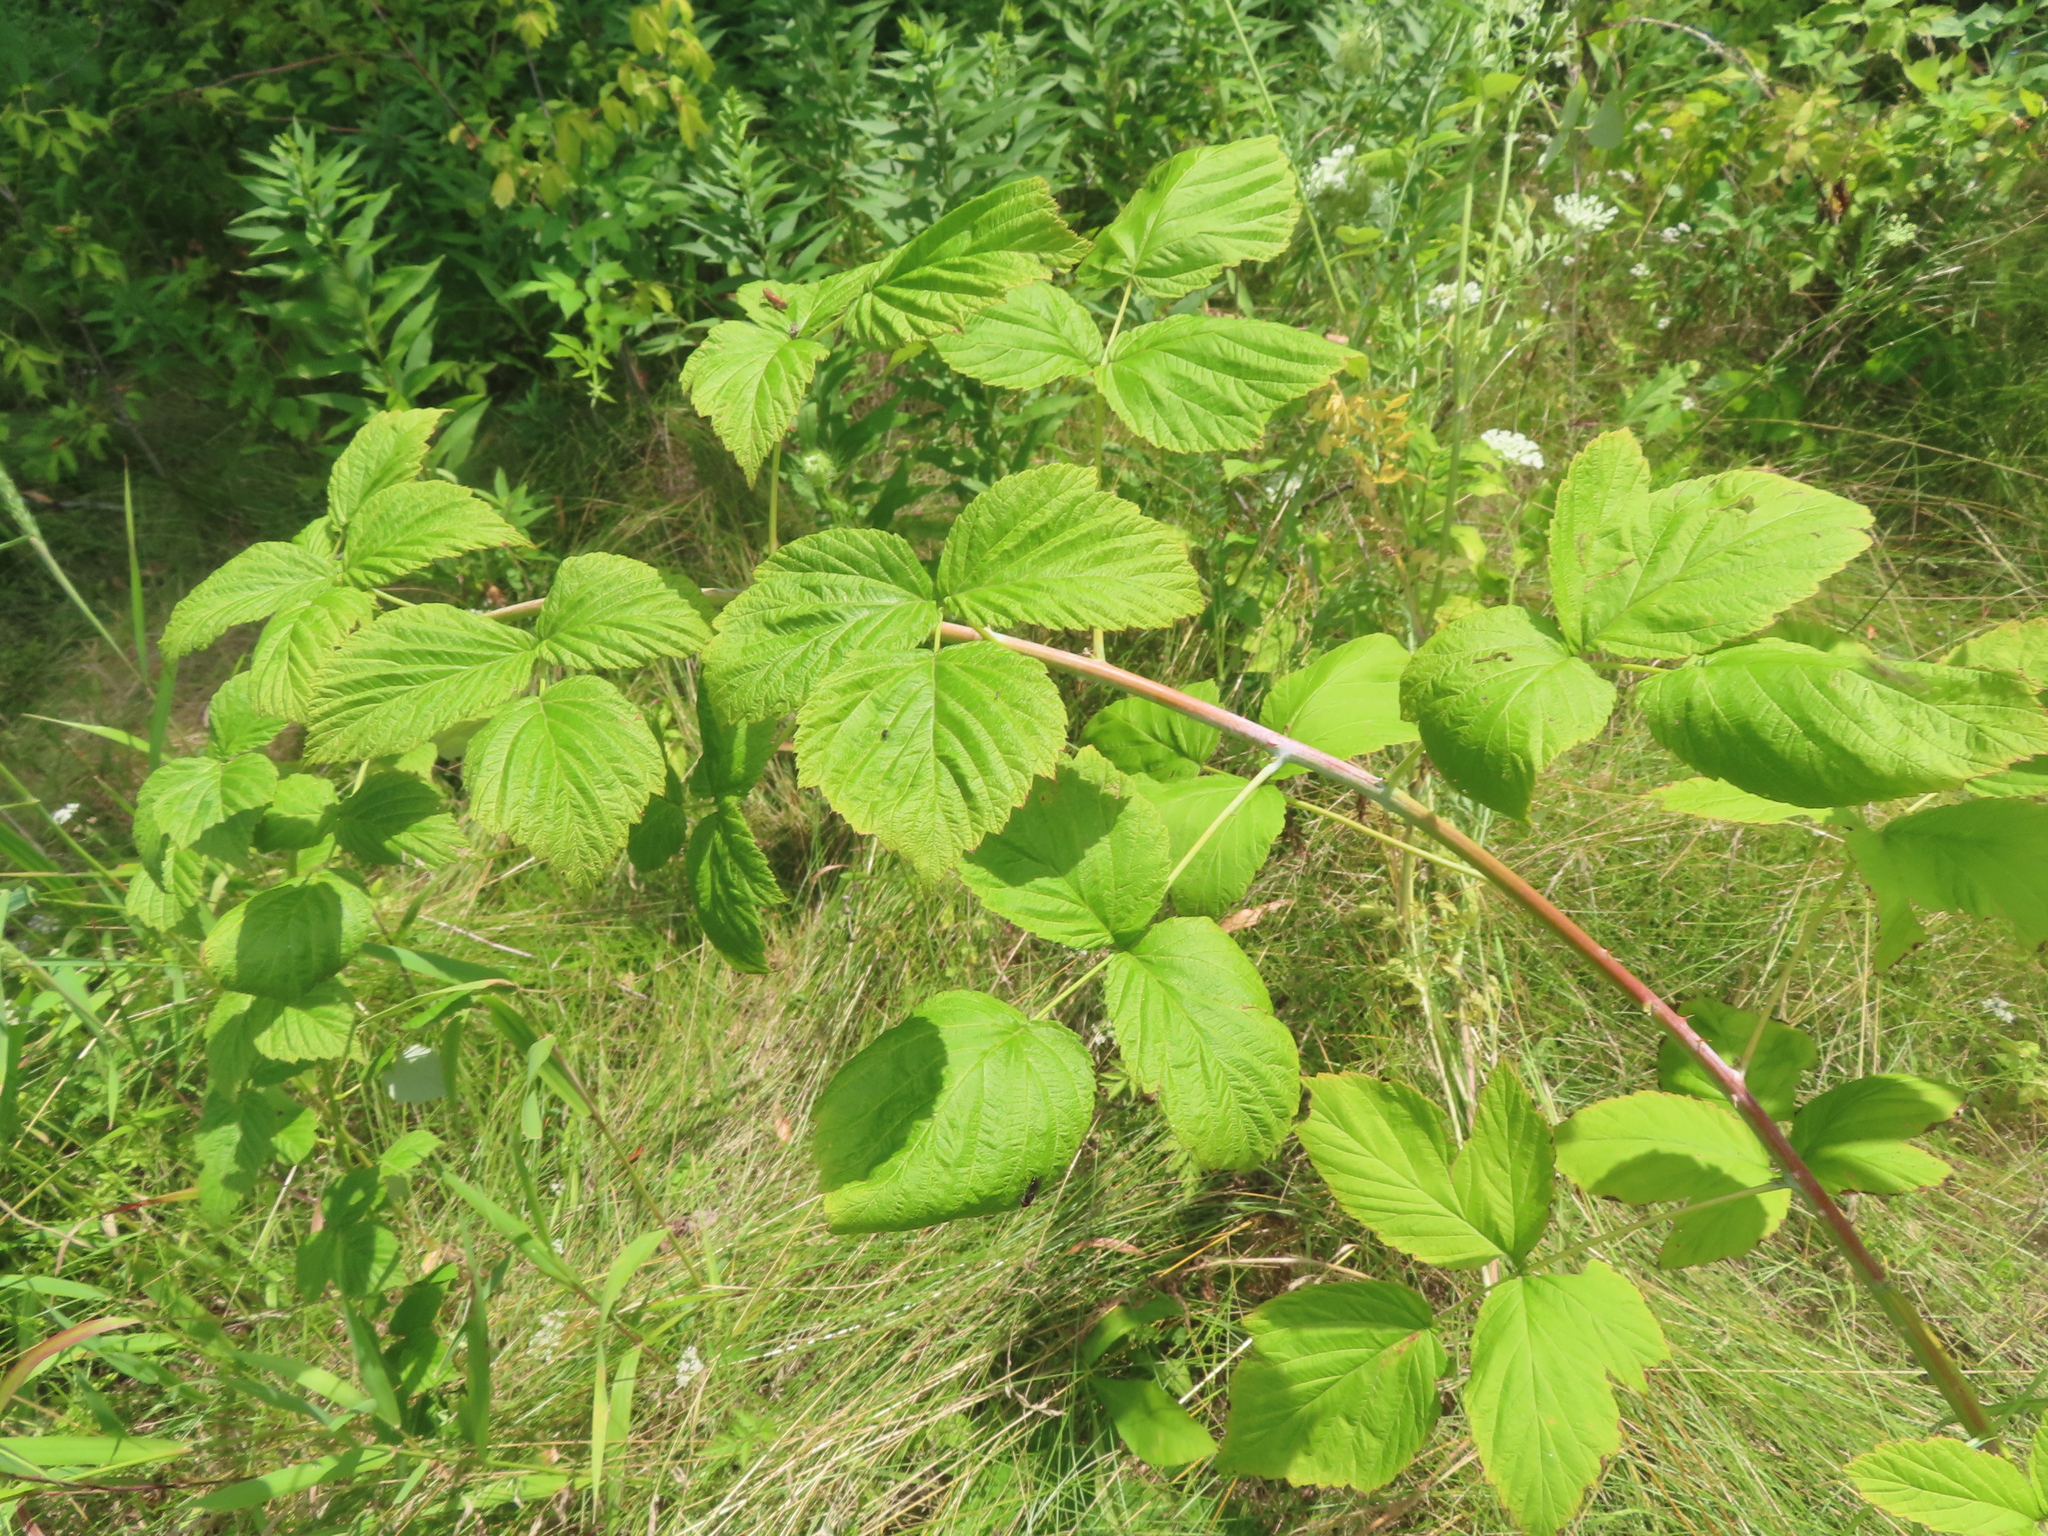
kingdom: Plantae
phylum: Tracheophyta
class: Magnoliopsida
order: Rosales
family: Rosaceae
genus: Rubus
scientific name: Rubus occidentalis
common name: Black raspberry
